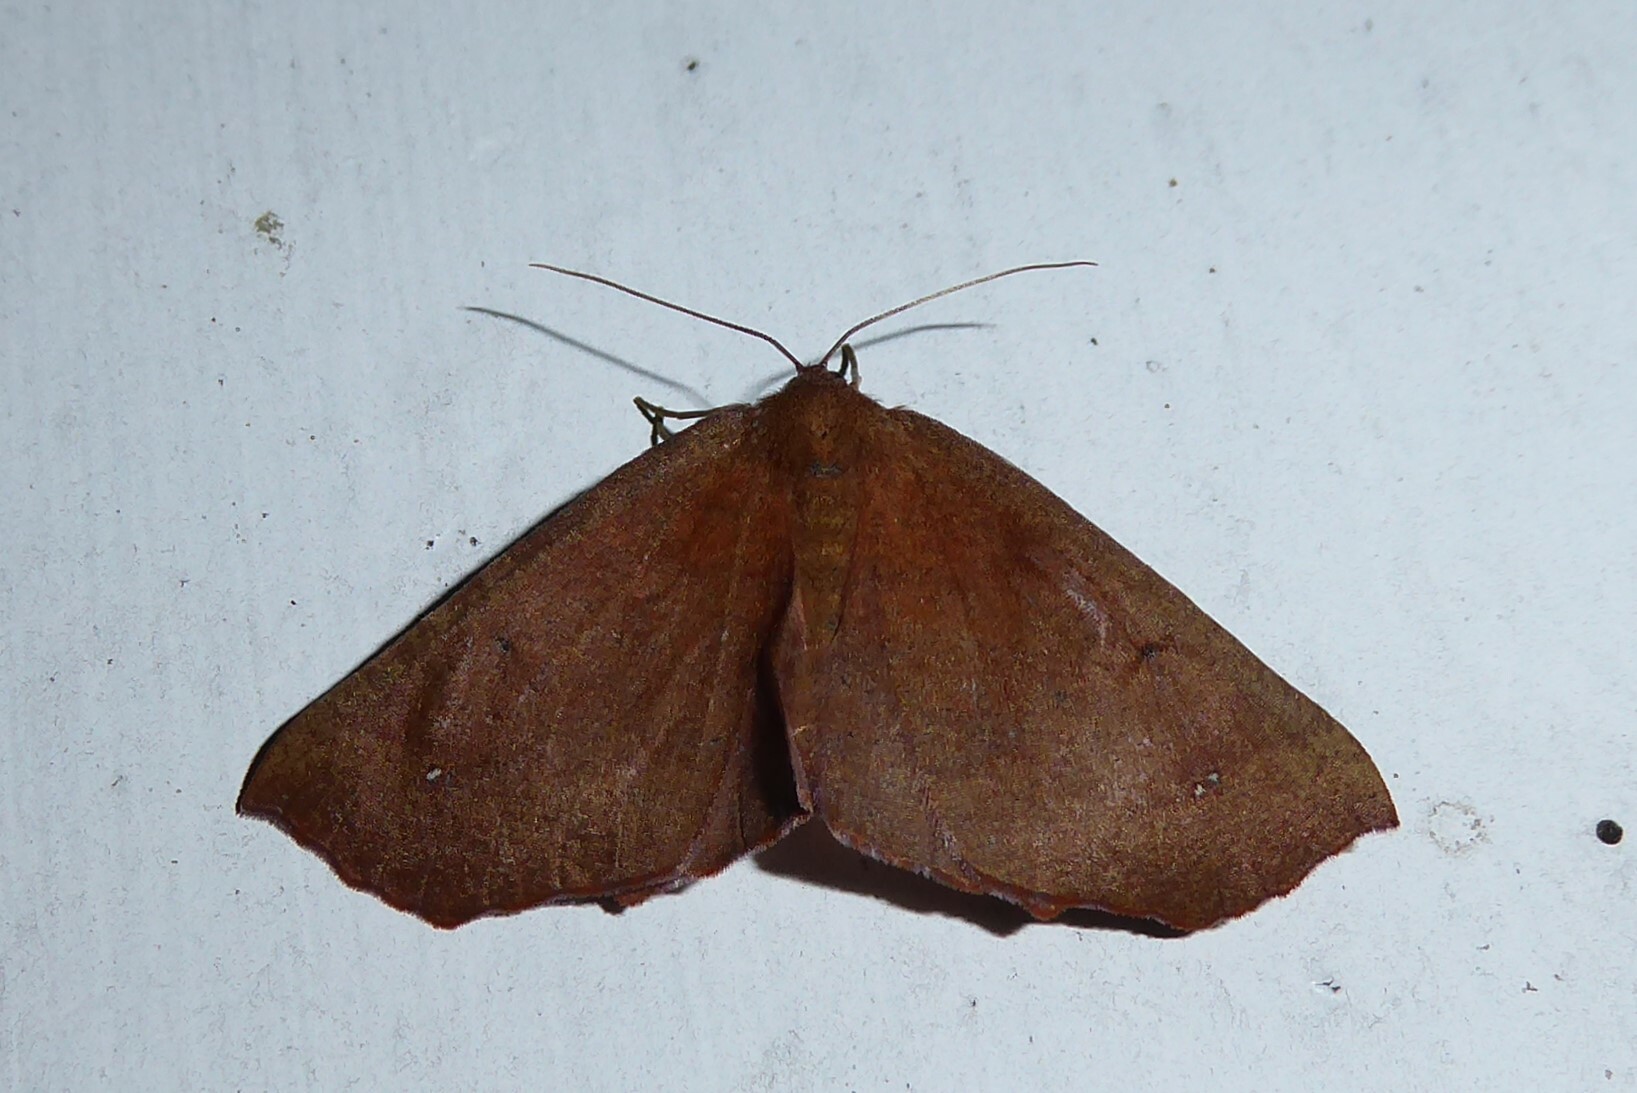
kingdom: Animalia
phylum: Arthropoda
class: Insecta
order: Lepidoptera
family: Geometridae
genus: Xyridacma
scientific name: Xyridacma ustaria
